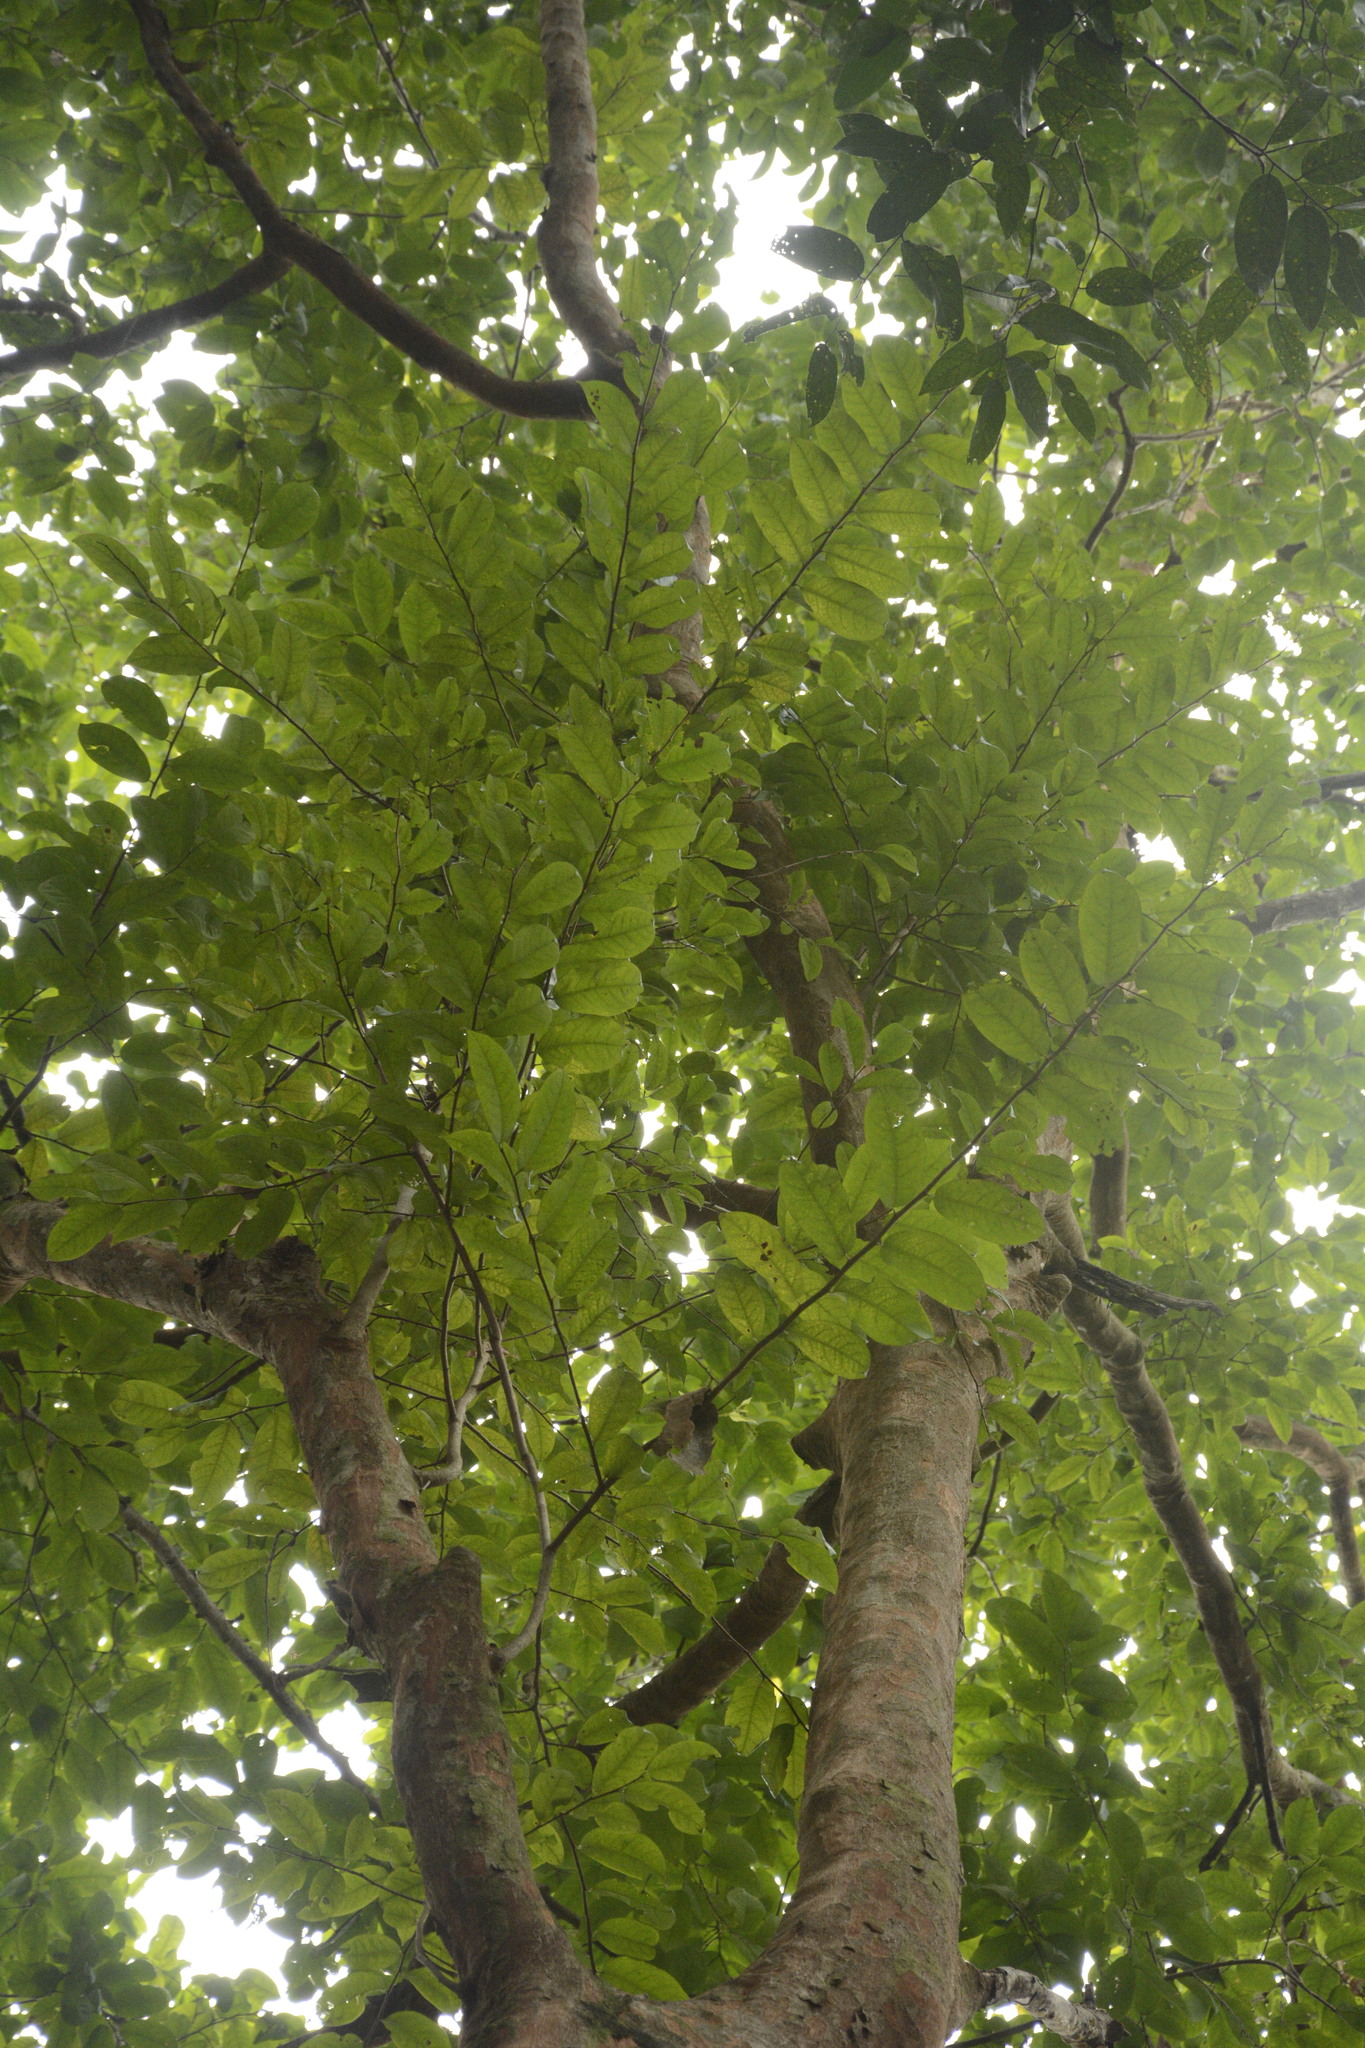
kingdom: Plantae
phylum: Tracheophyta
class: Magnoliopsida
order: Malpighiales
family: Phyllanthaceae
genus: Margaritaria
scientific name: Margaritaria indica
